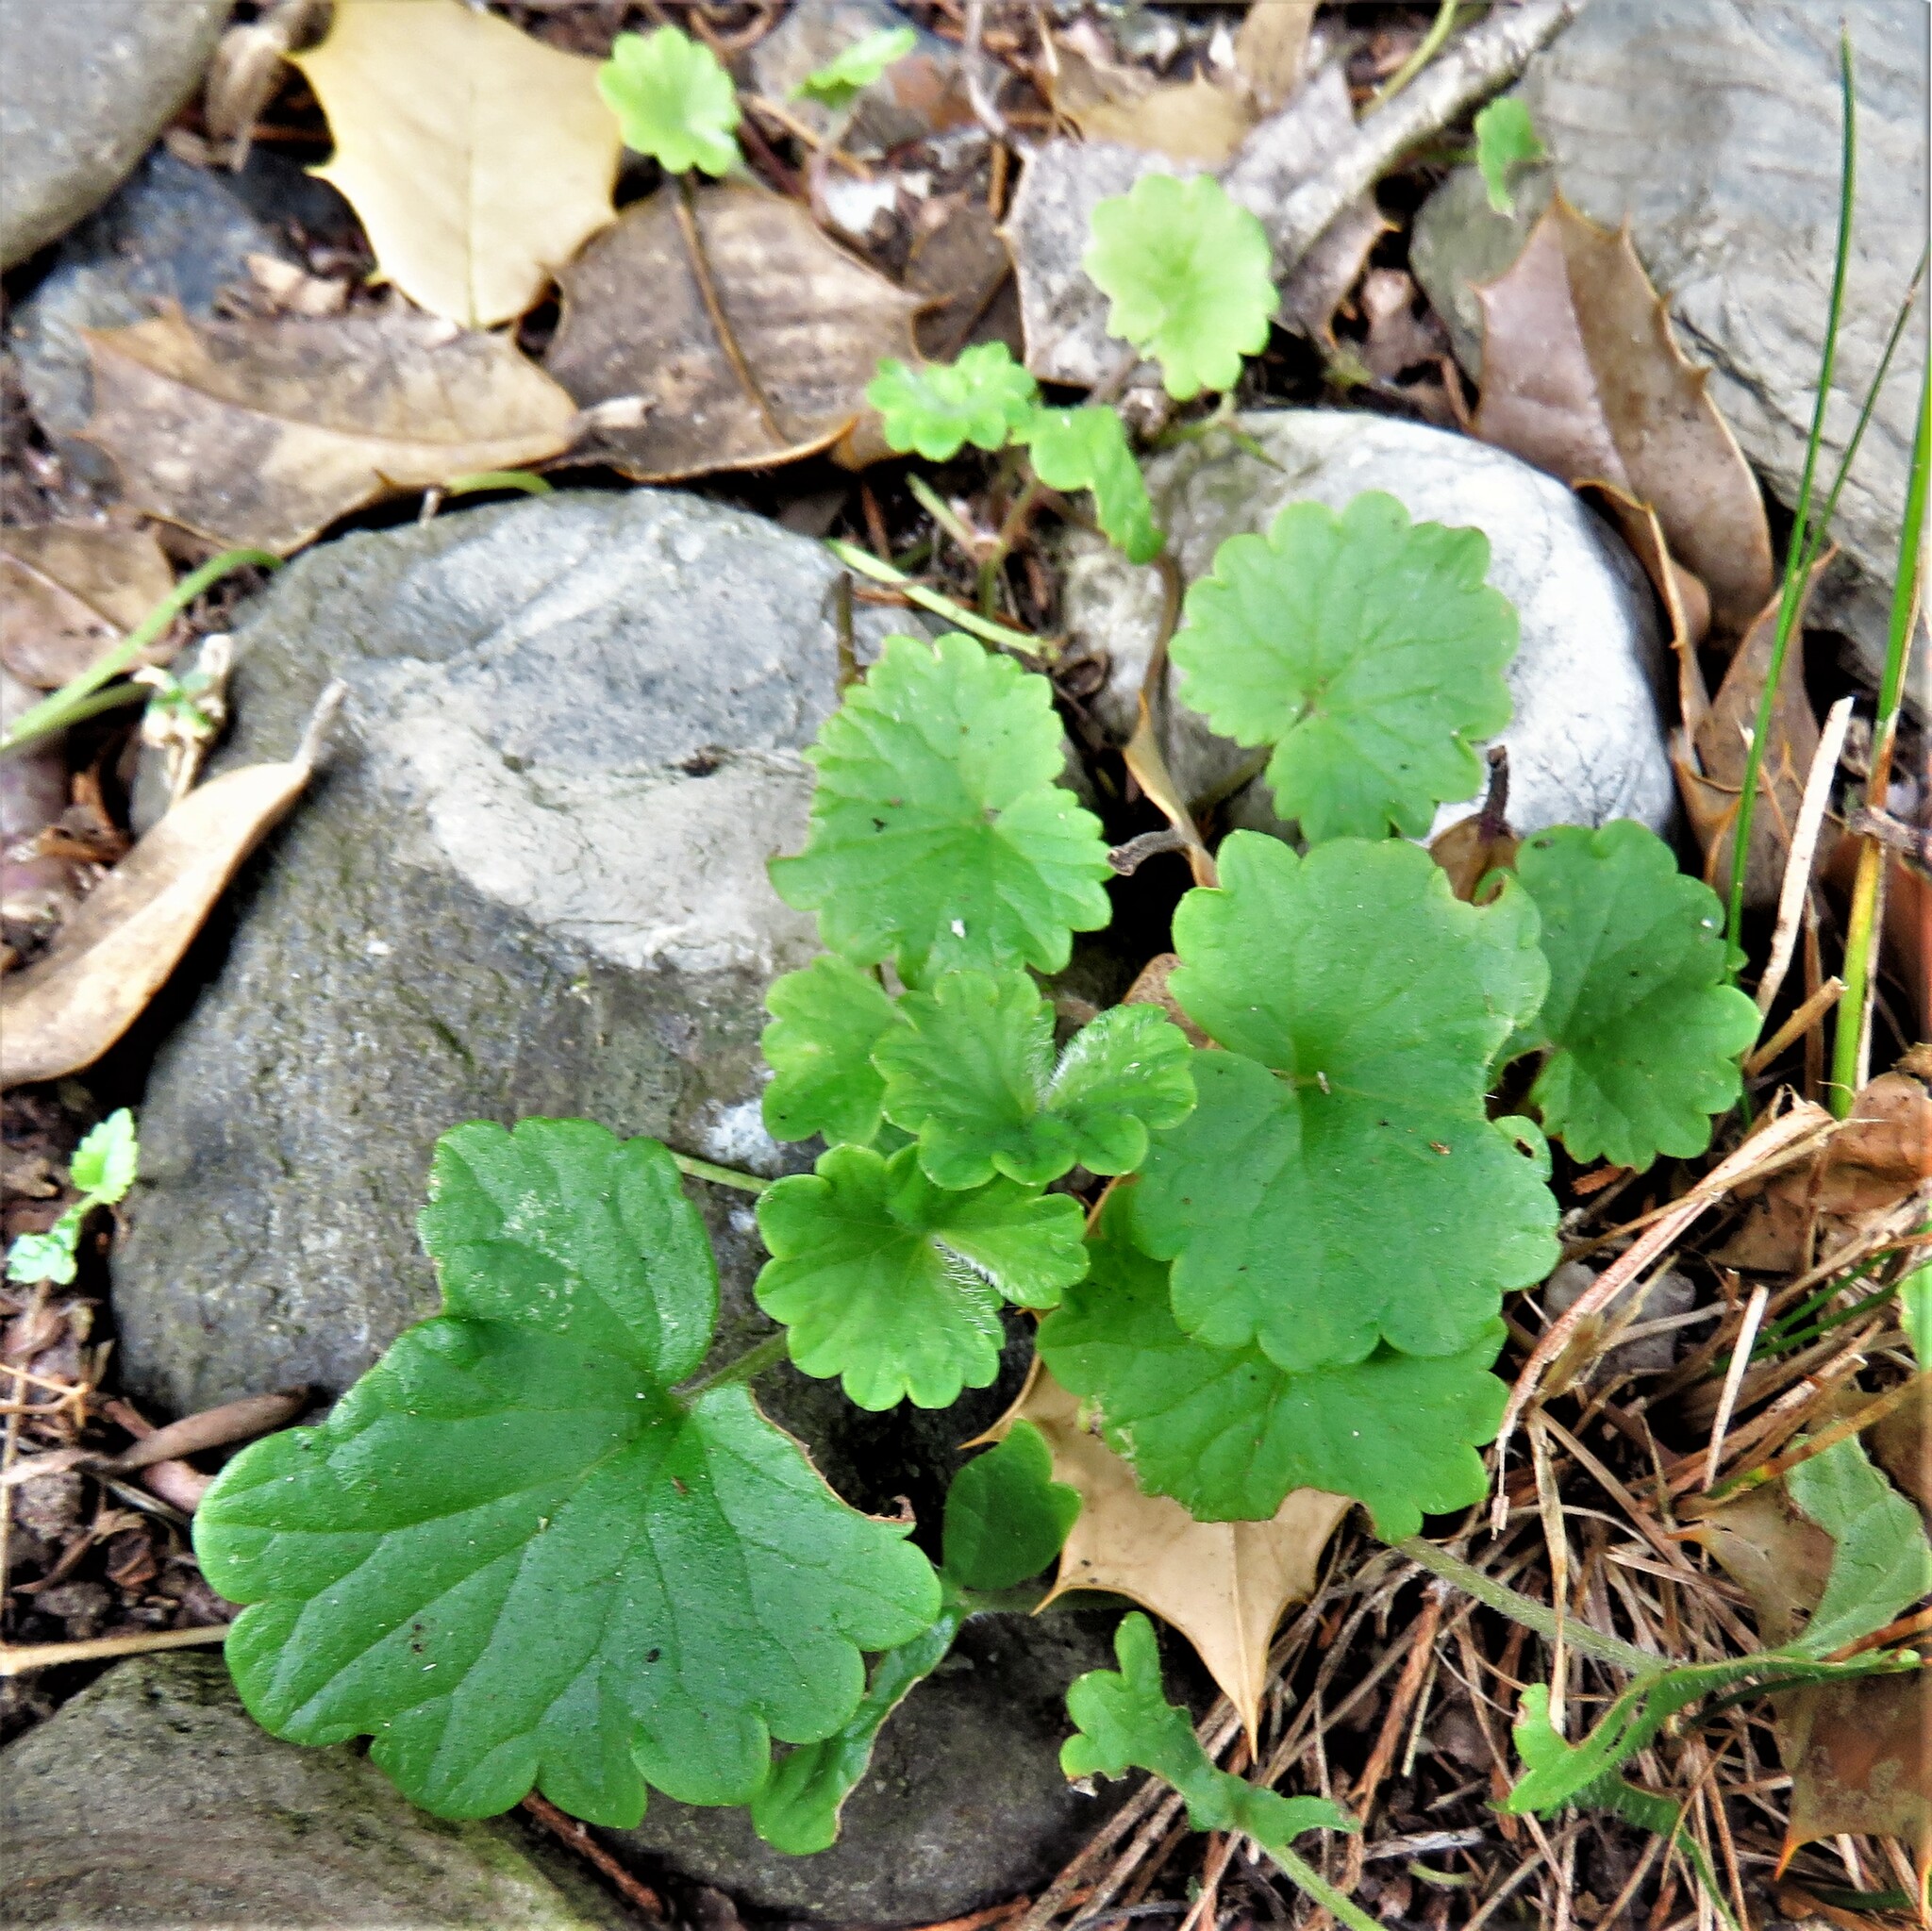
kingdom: Plantae
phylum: Tracheophyta
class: Magnoliopsida
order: Lamiales
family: Lamiaceae
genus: Glechoma
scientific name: Glechoma hederacea
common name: Ground ivy
